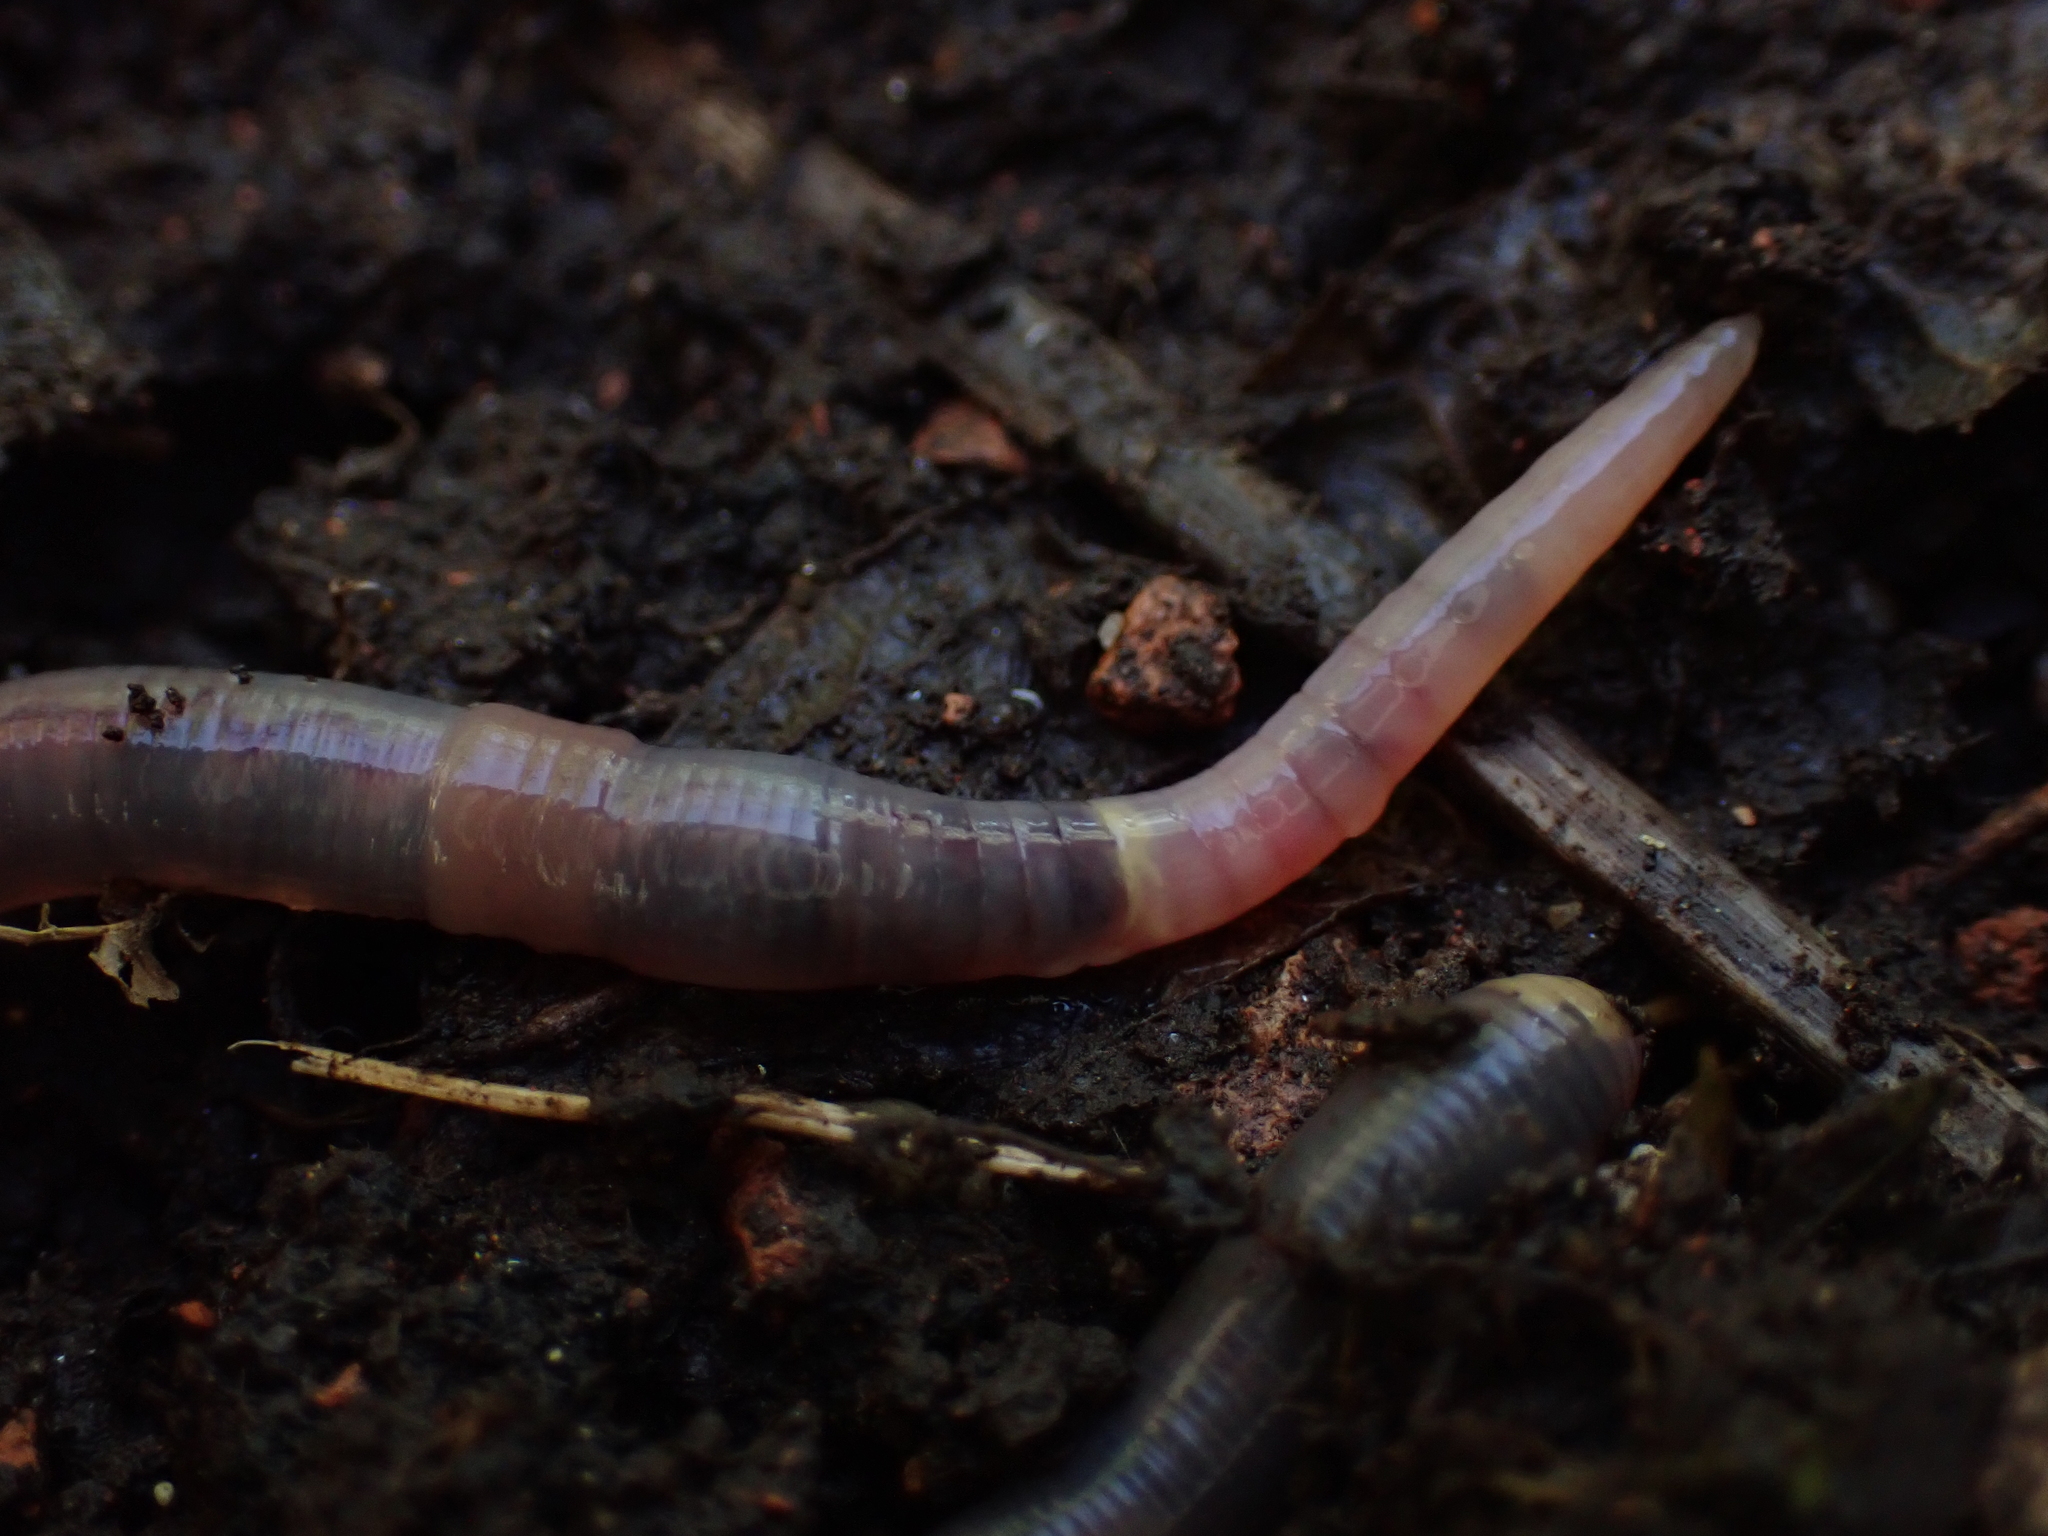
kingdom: Animalia
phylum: Annelida
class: Clitellata
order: Crassiclitellata
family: Lumbricidae
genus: Octolasion
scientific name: Octolasion cyaneum
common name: Woodland blue worm
